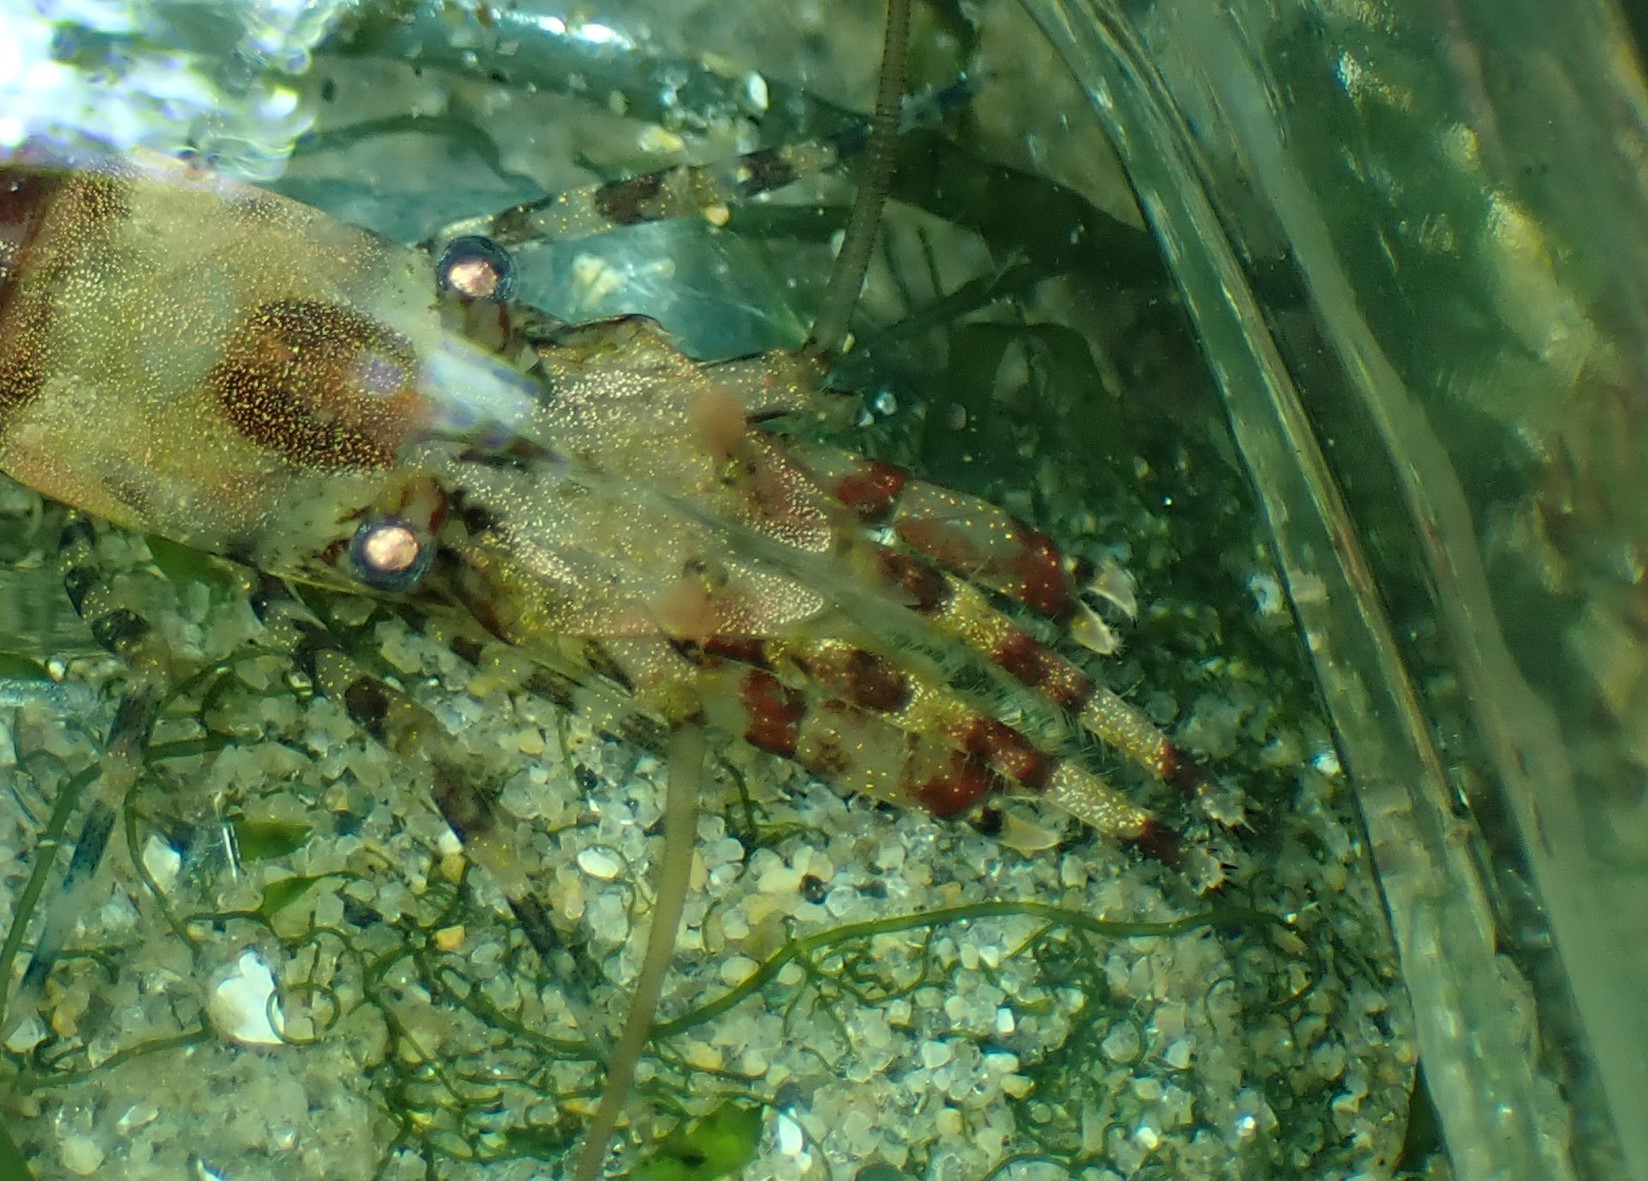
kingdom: Animalia
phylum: Arthropoda
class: Malacostraca
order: Decapoda
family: Thoridae
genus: Heptacarpus
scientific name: Heptacarpus brevirostris
